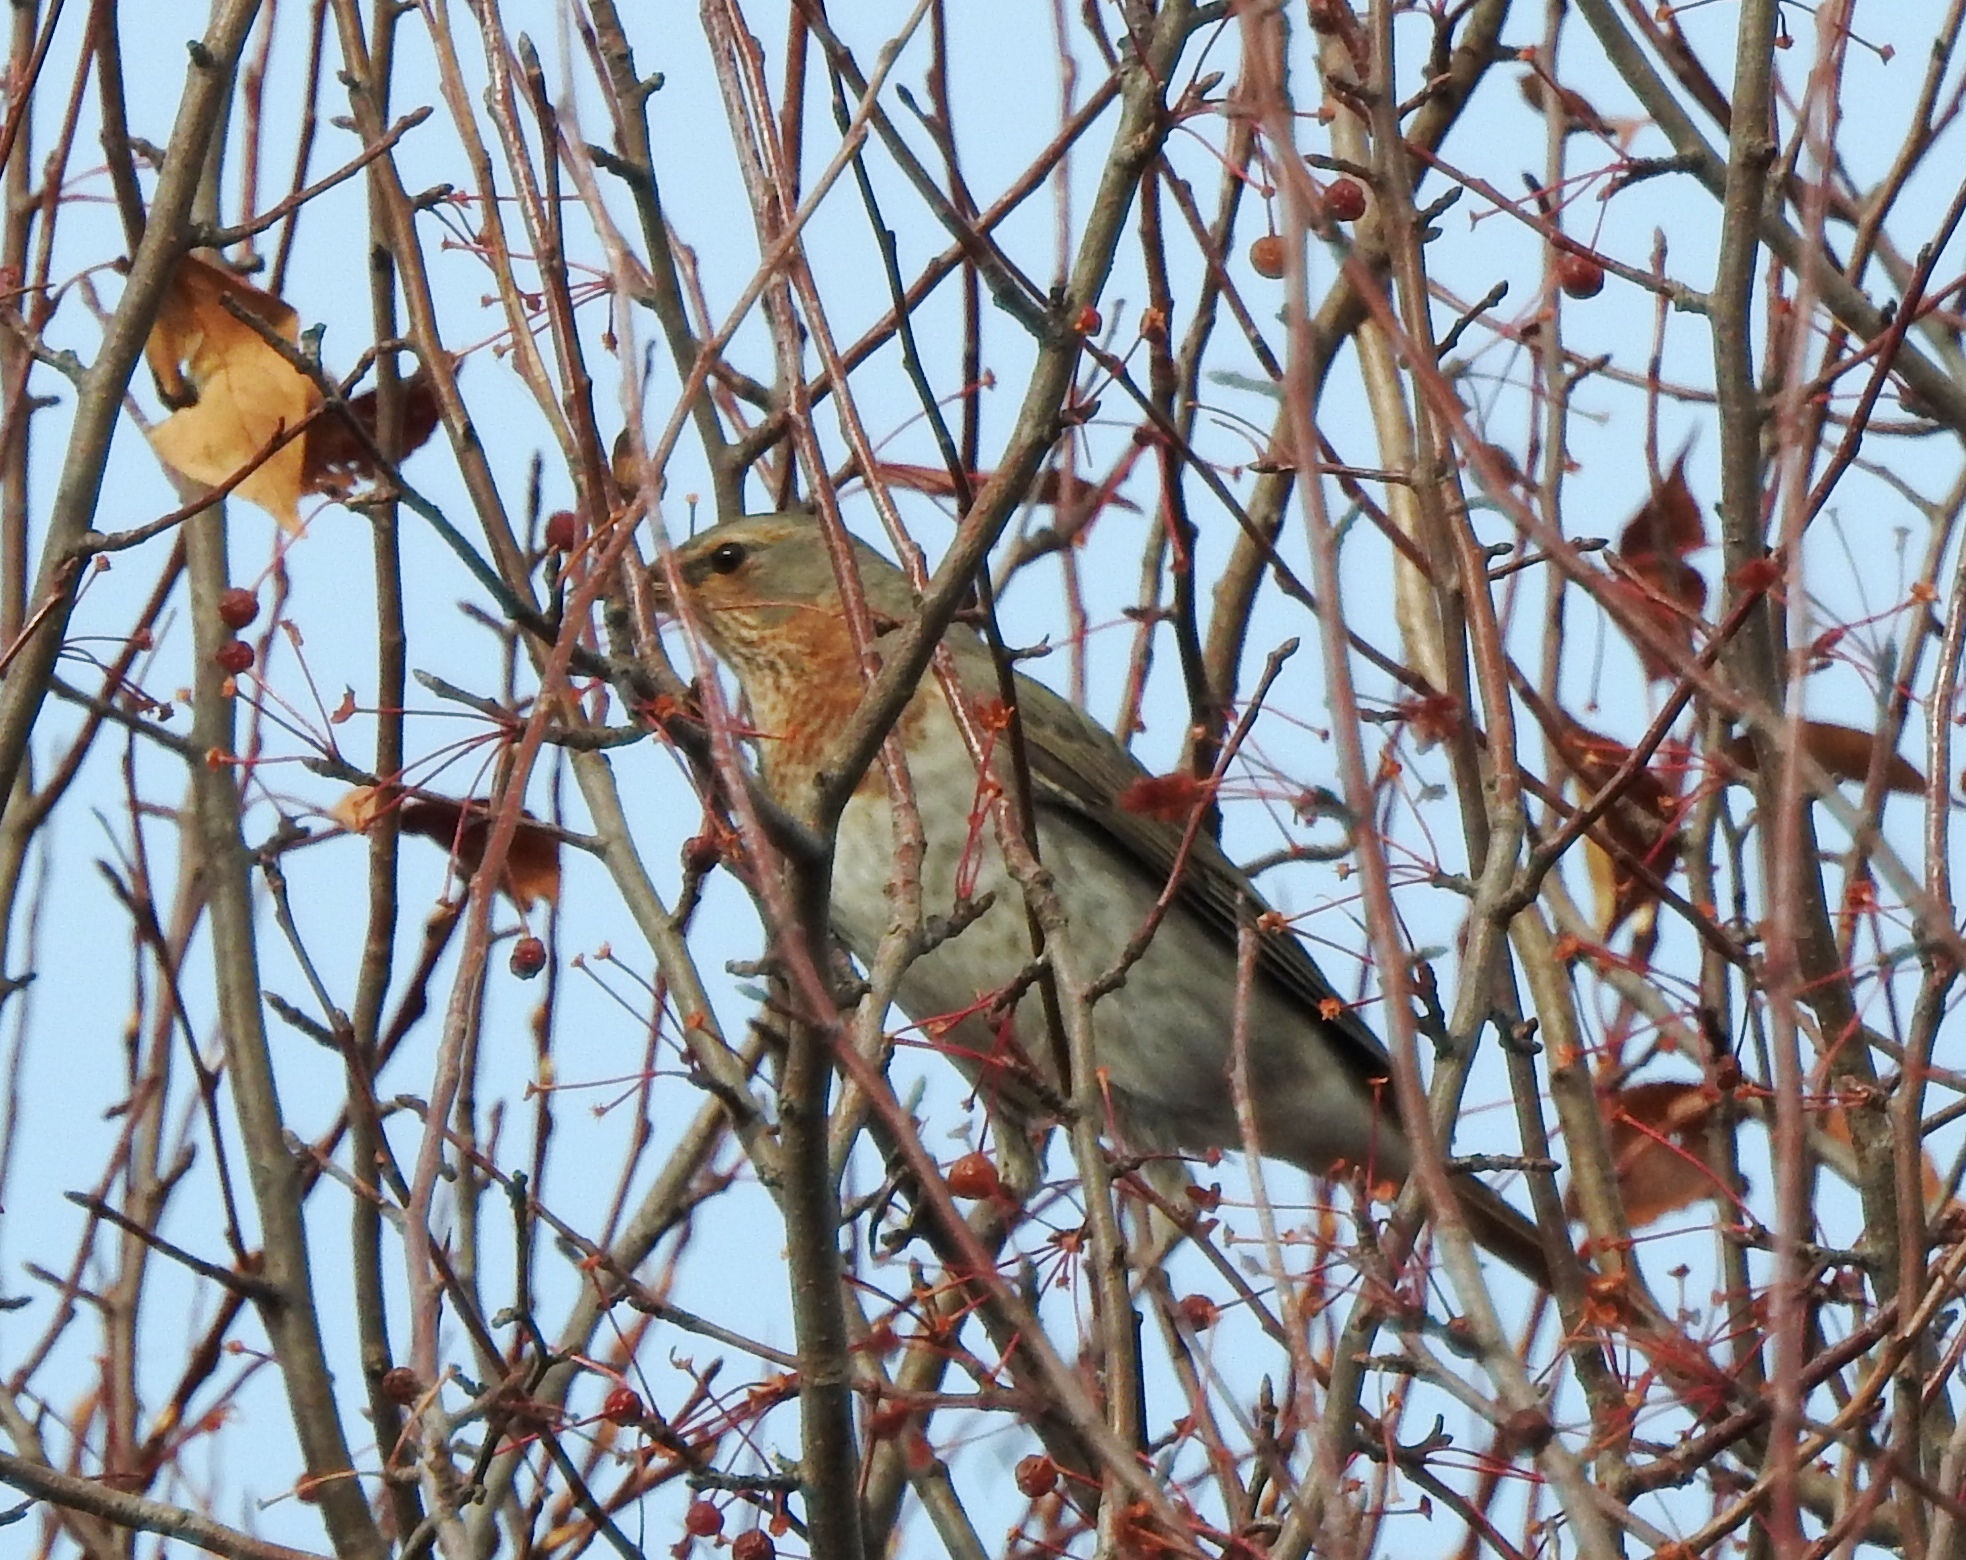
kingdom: Animalia
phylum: Chordata
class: Aves
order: Passeriformes
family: Turdidae
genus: Turdus
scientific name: Turdus ruficollis
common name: Red-throated thrush
